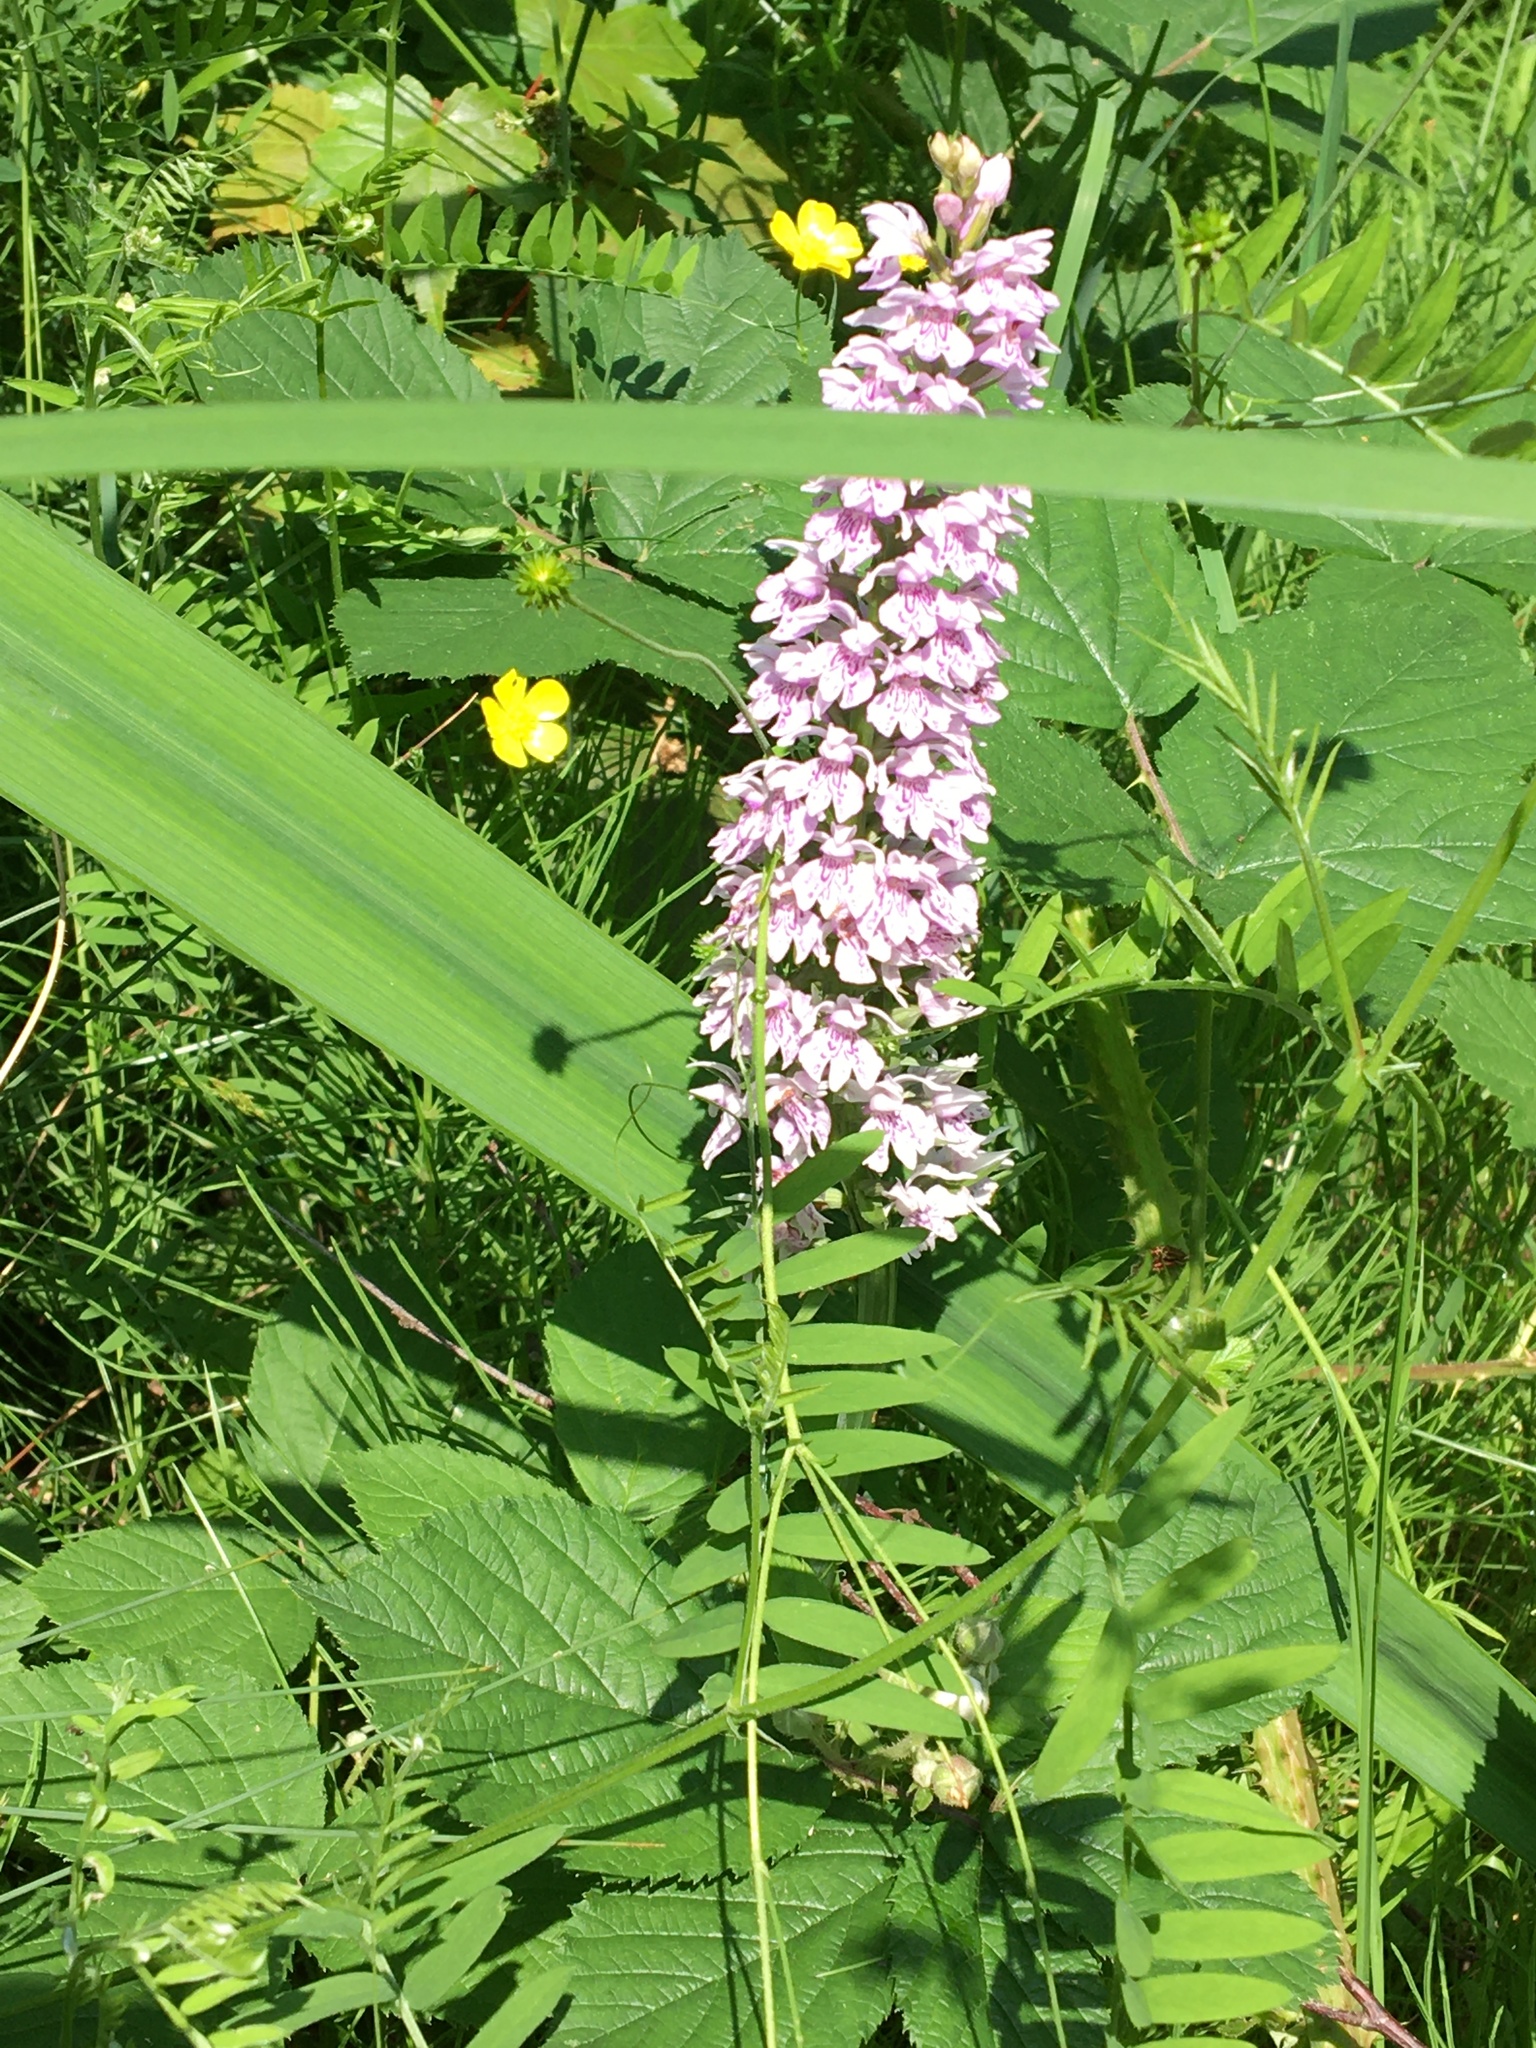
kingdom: Plantae
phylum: Tracheophyta
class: Liliopsida
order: Asparagales
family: Orchidaceae
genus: Dactylorhiza
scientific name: Dactylorhiza maculata
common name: Heath spotted-orchid
